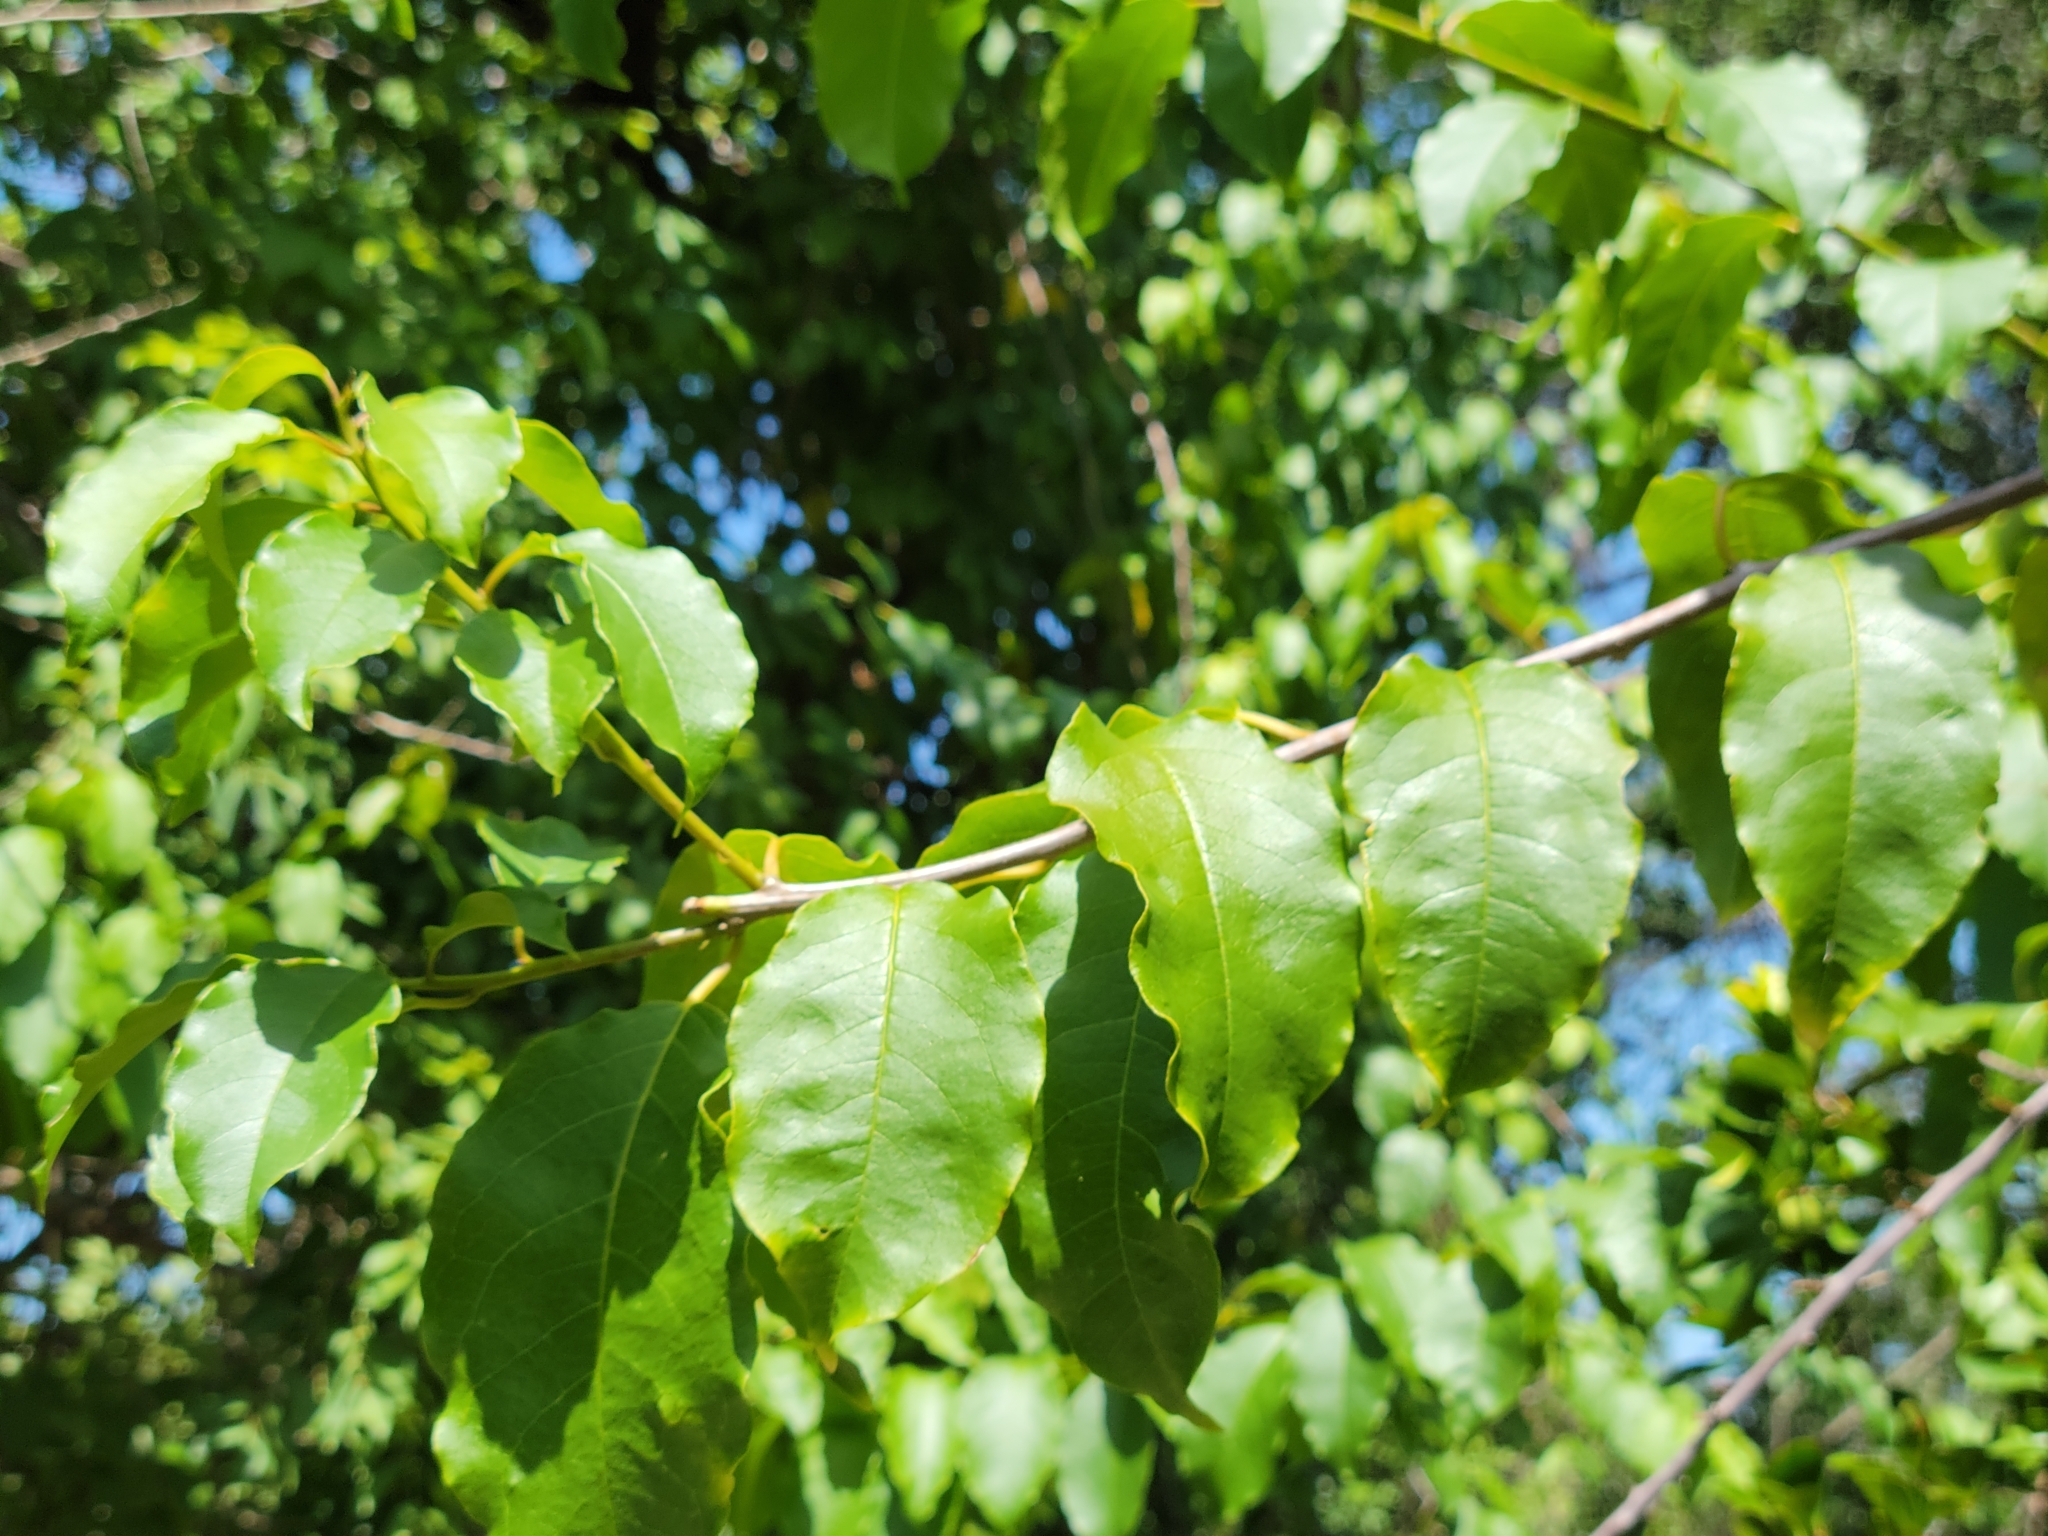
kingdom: Plantae
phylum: Tracheophyta
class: Magnoliopsida
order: Caryophyllales
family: Phytolaccaceae
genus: Trichostigma
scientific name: Trichostigma octandrum
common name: Basket wiss
